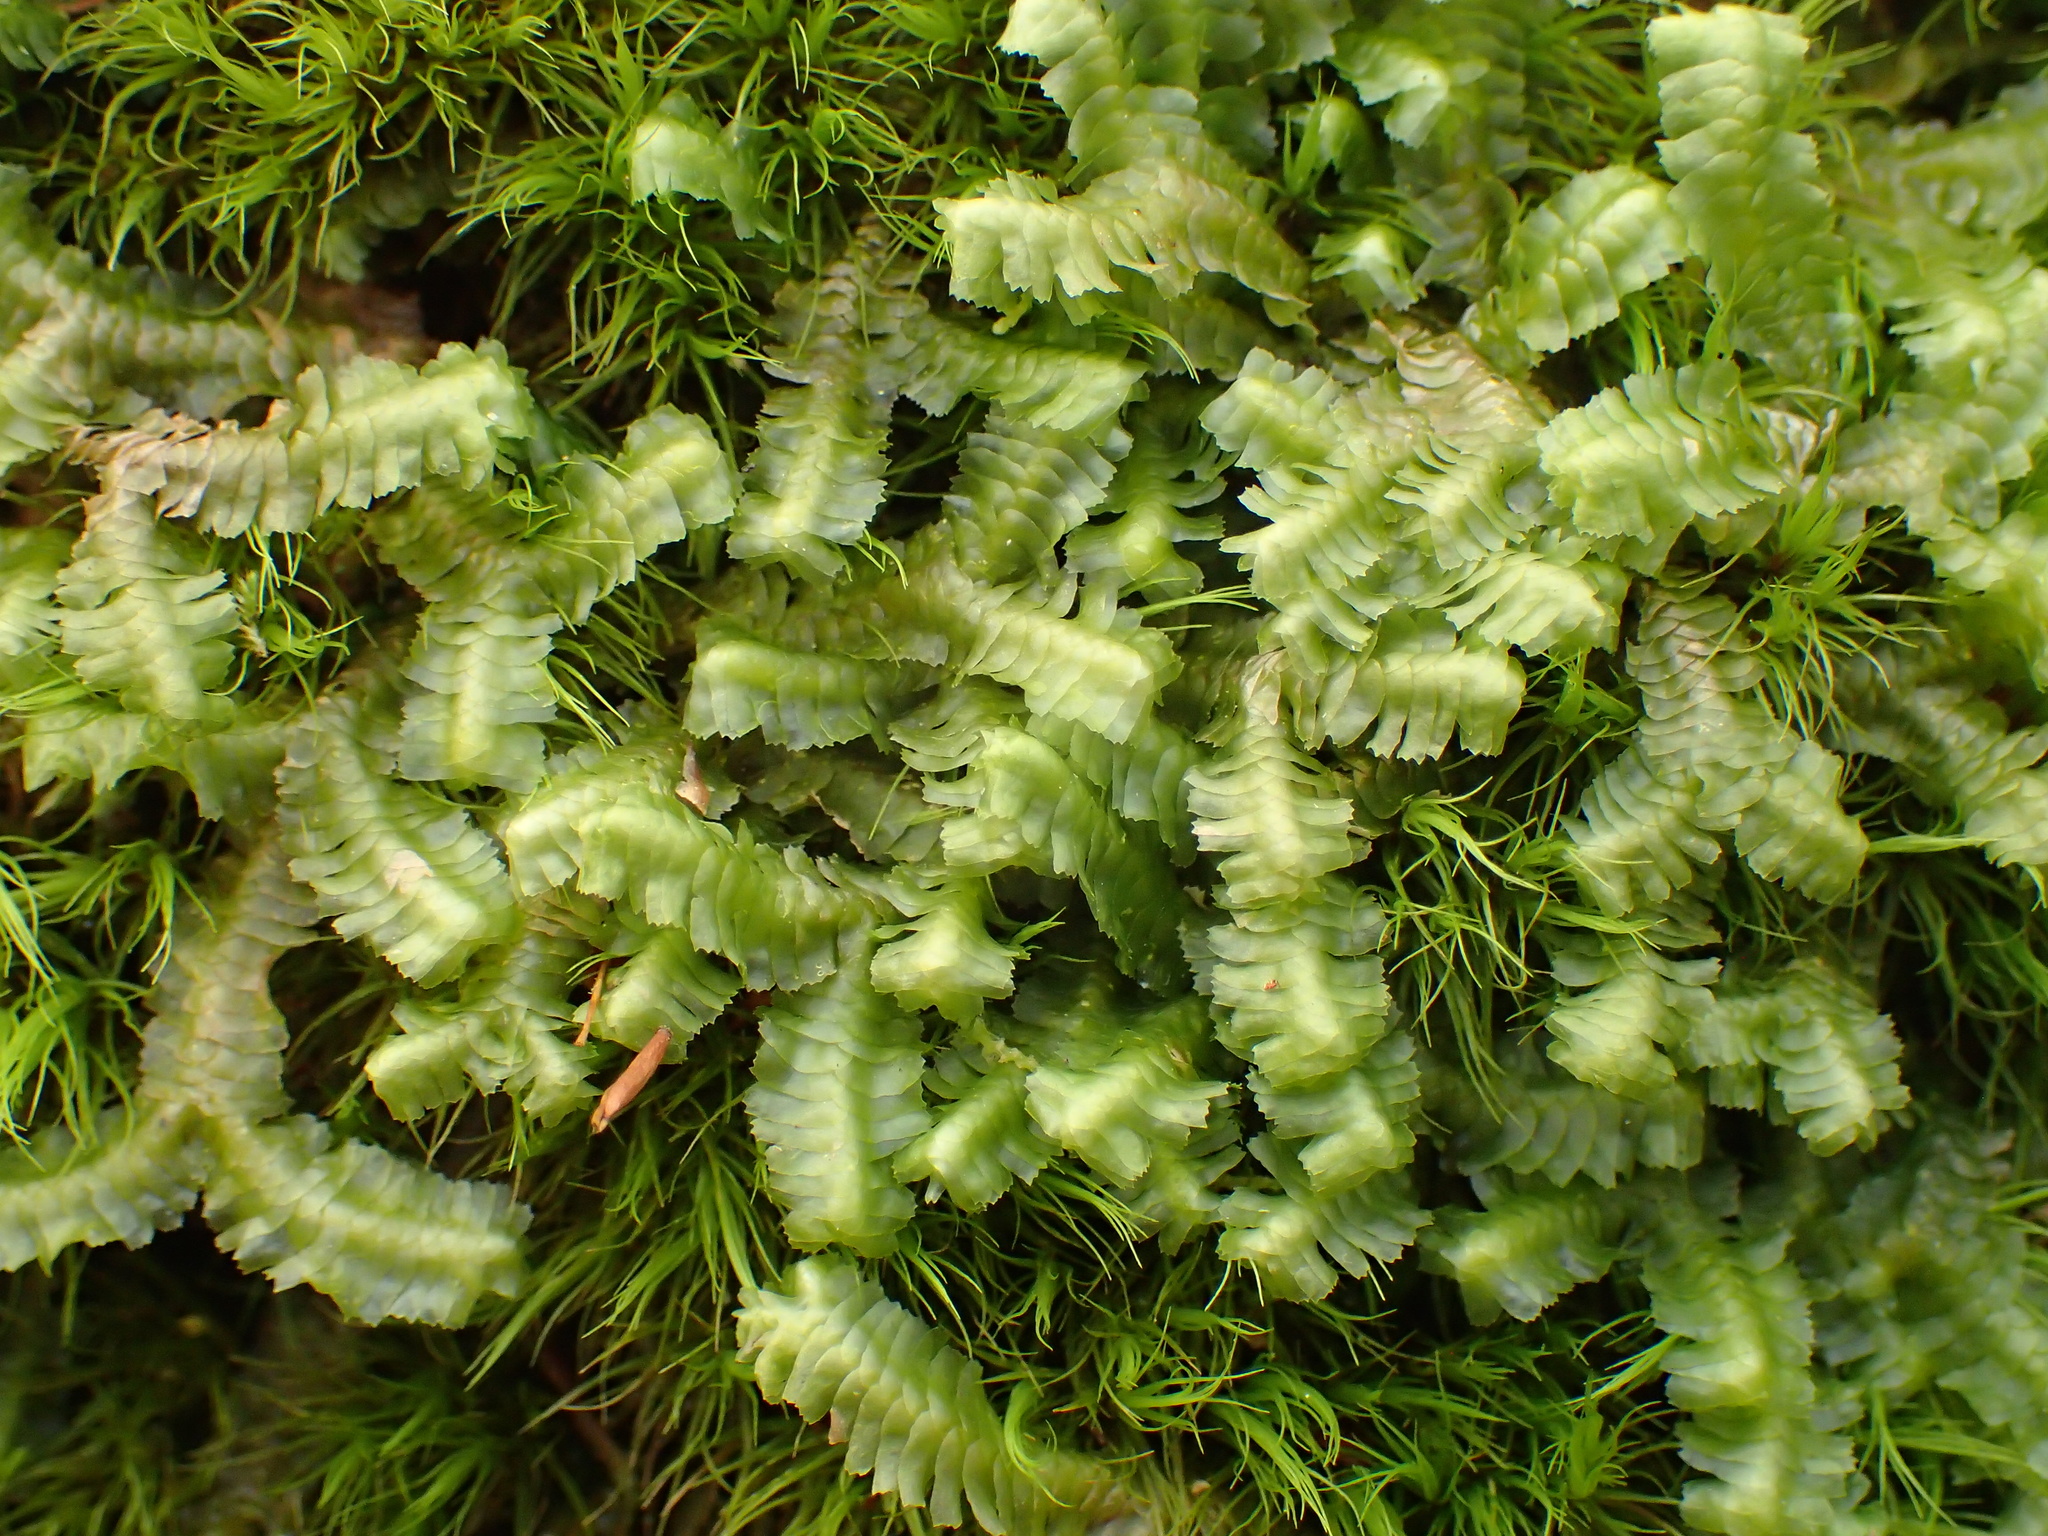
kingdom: Plantae
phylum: Marchantiophyta
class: Jungermanniopsida
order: Jungermanniales
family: Lepidoziaceae
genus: Bazzania
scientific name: Bazzania trilobata
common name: Three-lobed whipwort
